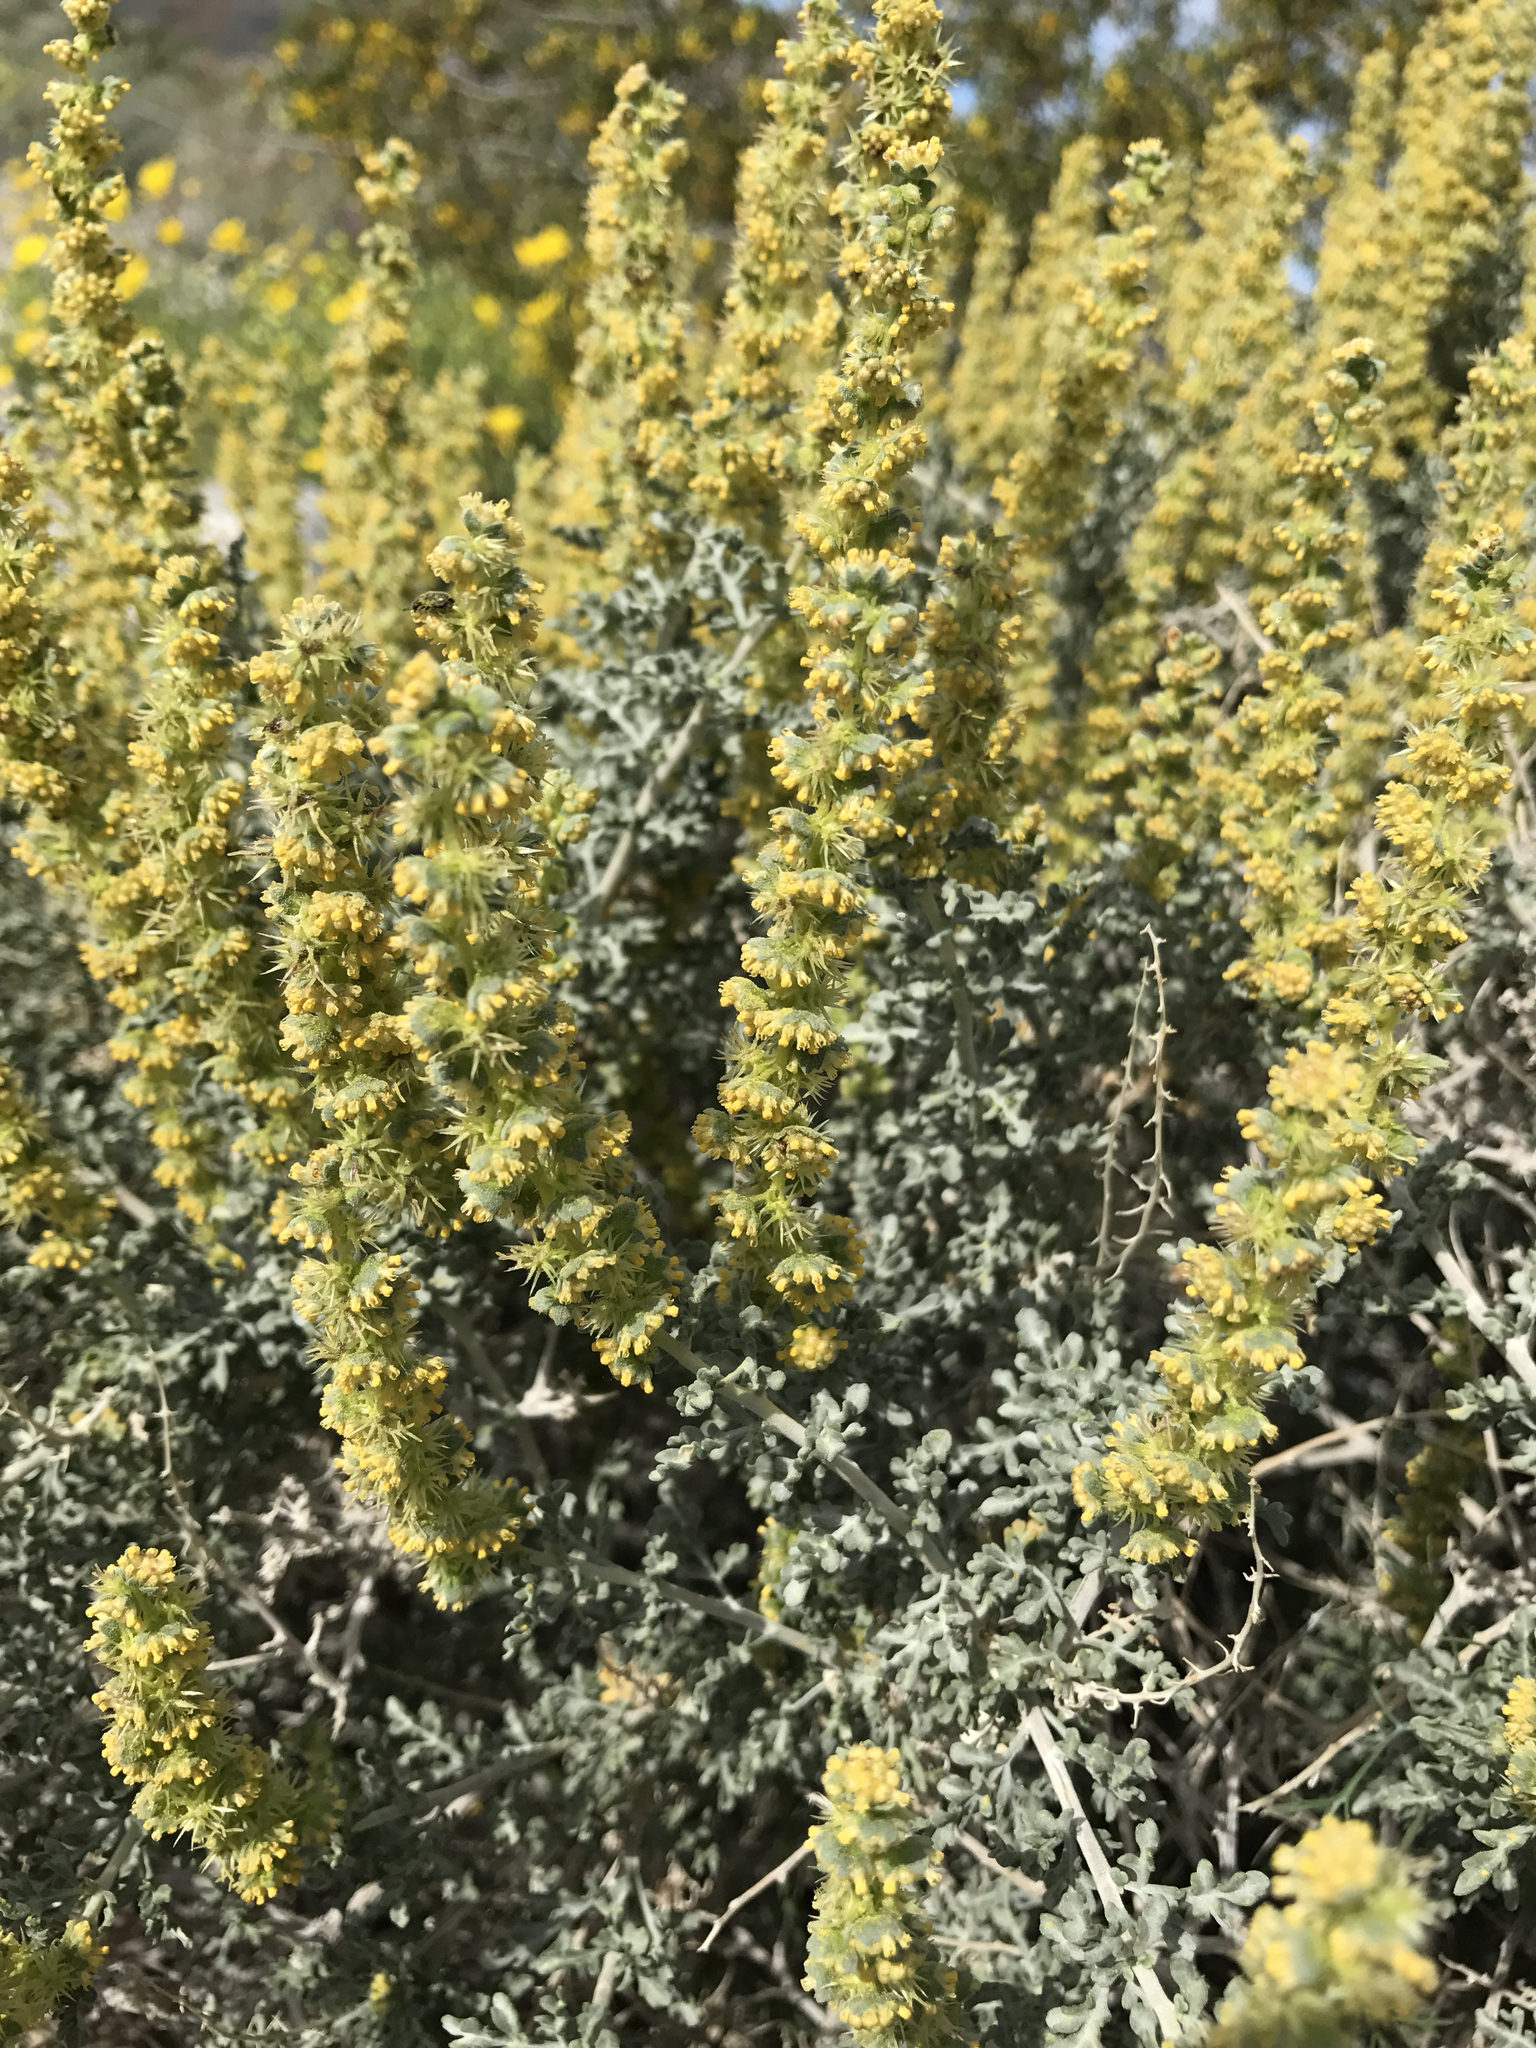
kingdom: Plantae
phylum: Tracheophyta
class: Magnoliopsida
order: Asterales
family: Asteraceae
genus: Ambrosia
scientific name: Ambrosia dumosa
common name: Bur-sage
